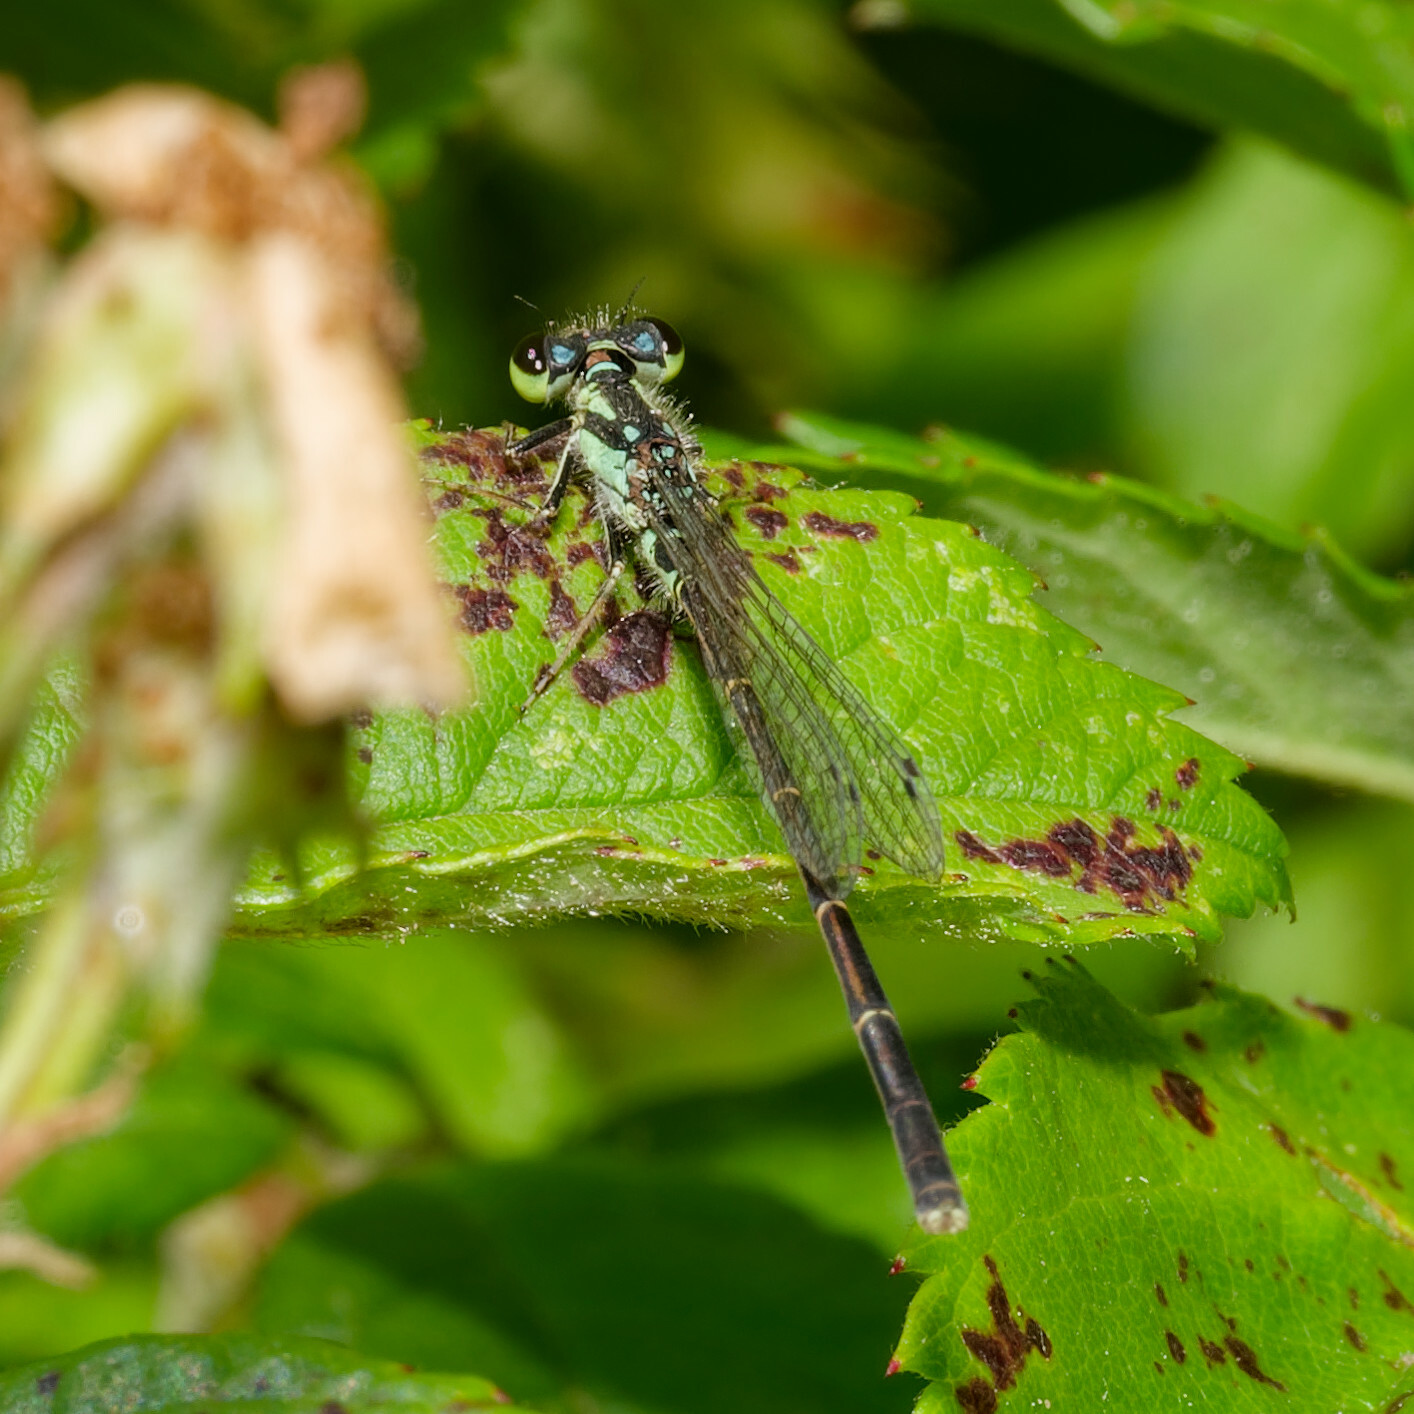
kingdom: Animalia
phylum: Arthropoda
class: Insecta
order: Odonata
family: Coenagrionidae
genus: Ischnura
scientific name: Ischnura posita
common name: Fragile forktail
